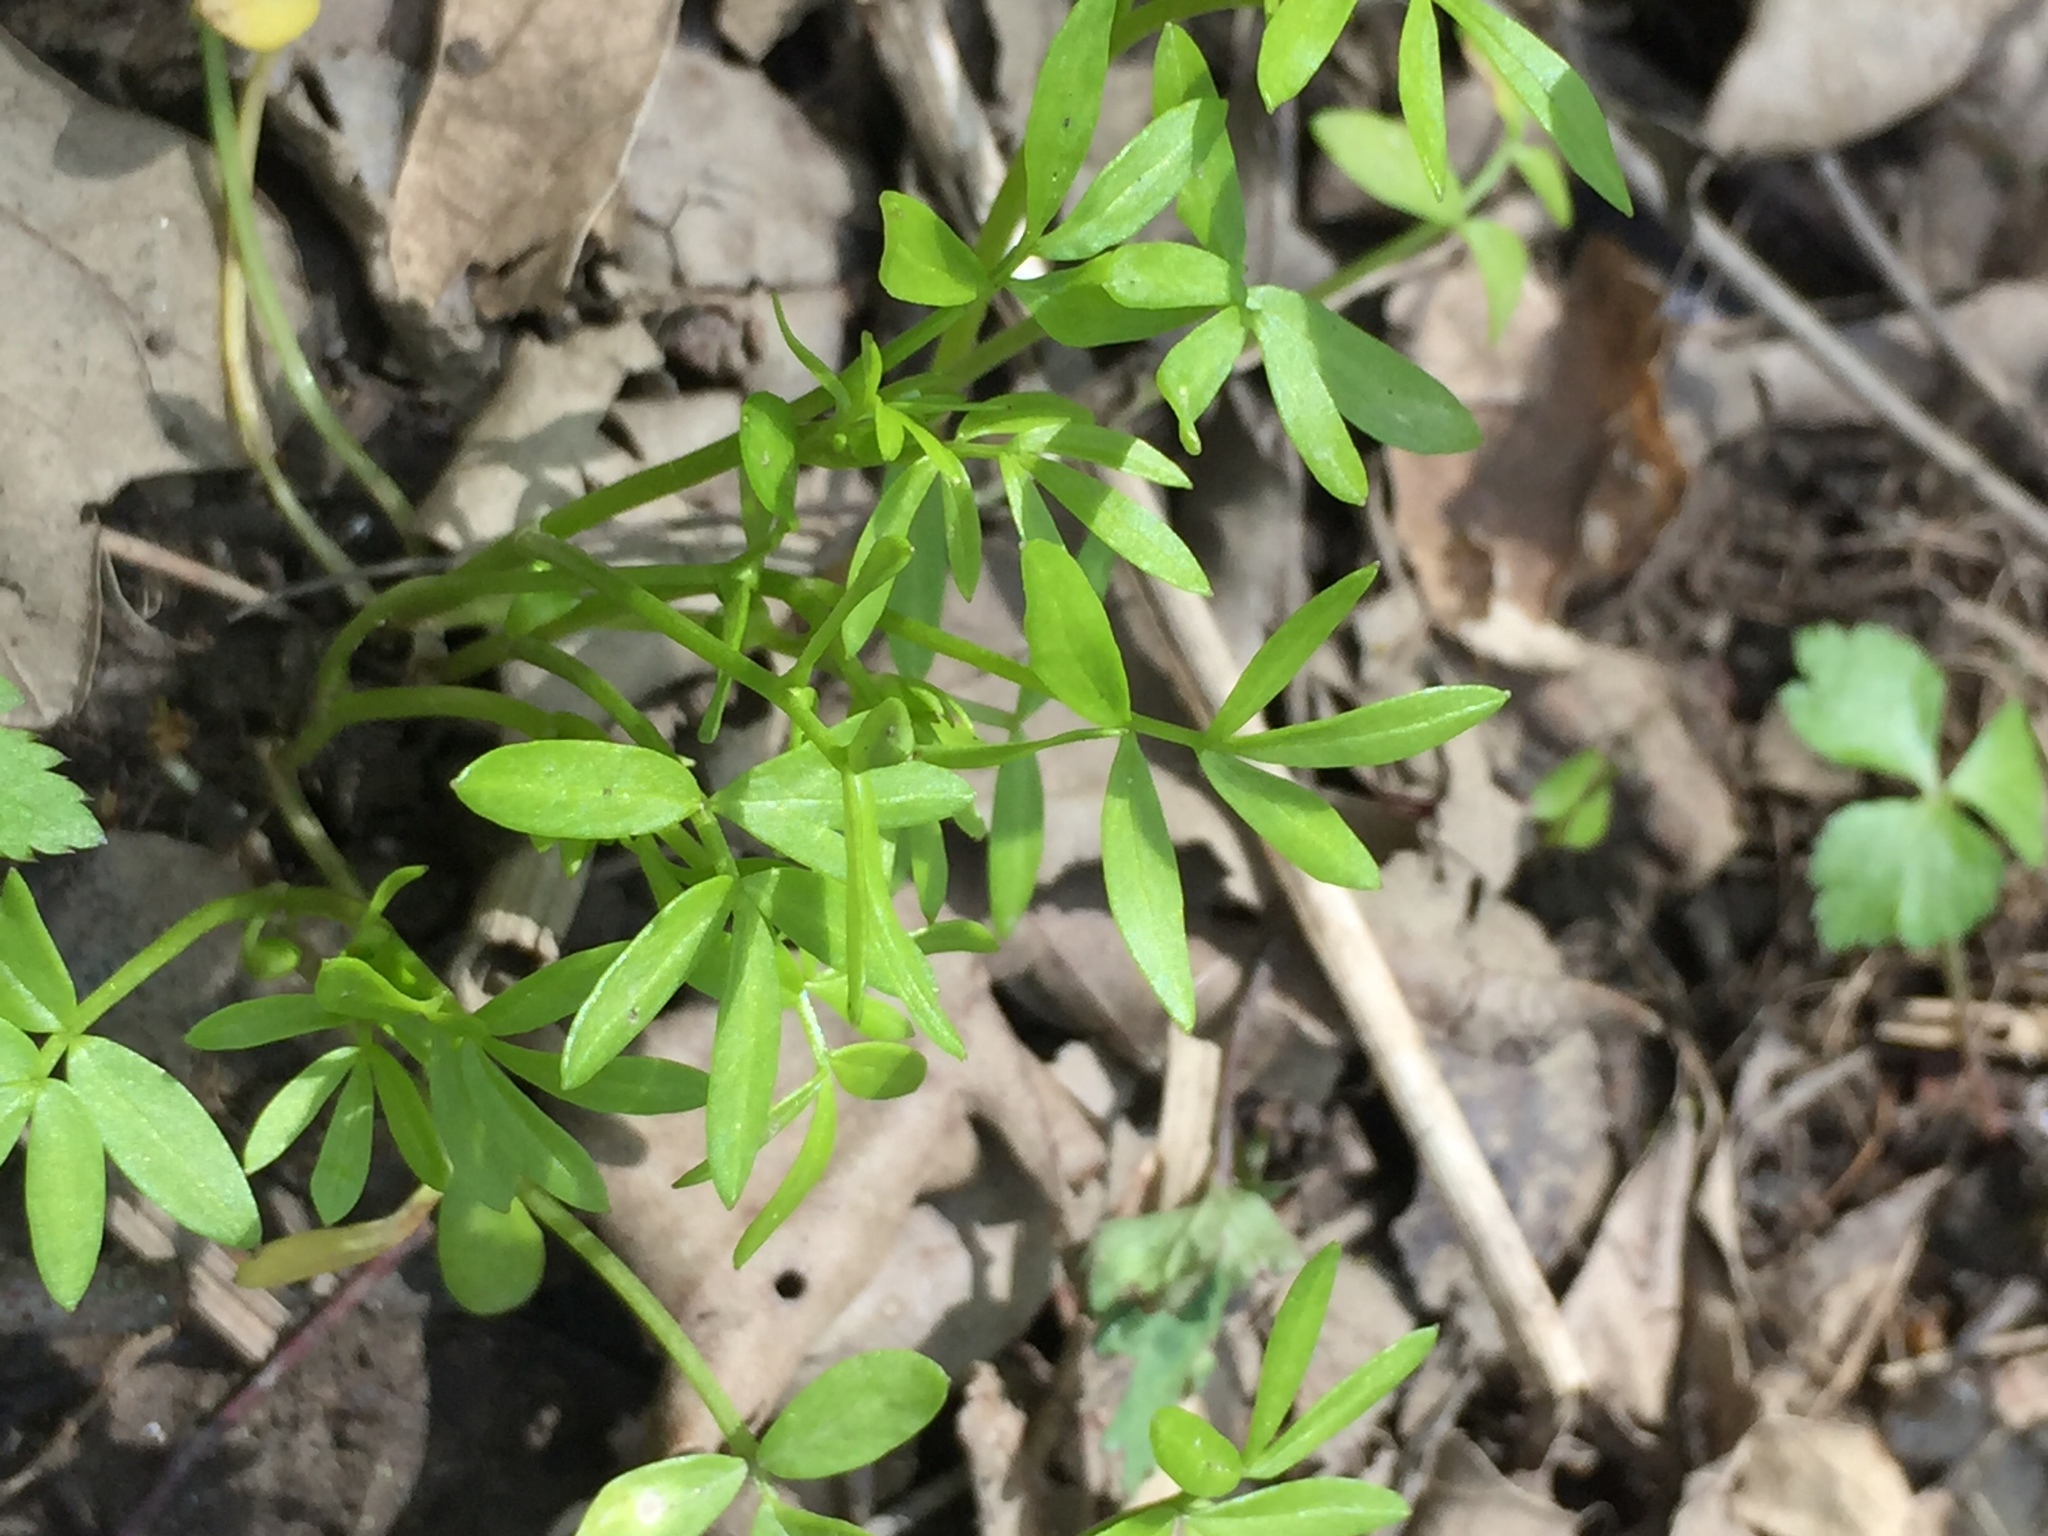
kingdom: Plantae
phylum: Tracheophyta
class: Magnoliopsida
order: Brassicales
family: Limnanthaceae
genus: Floerkea
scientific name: Floerkea proserpinacoides
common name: False mermaid
